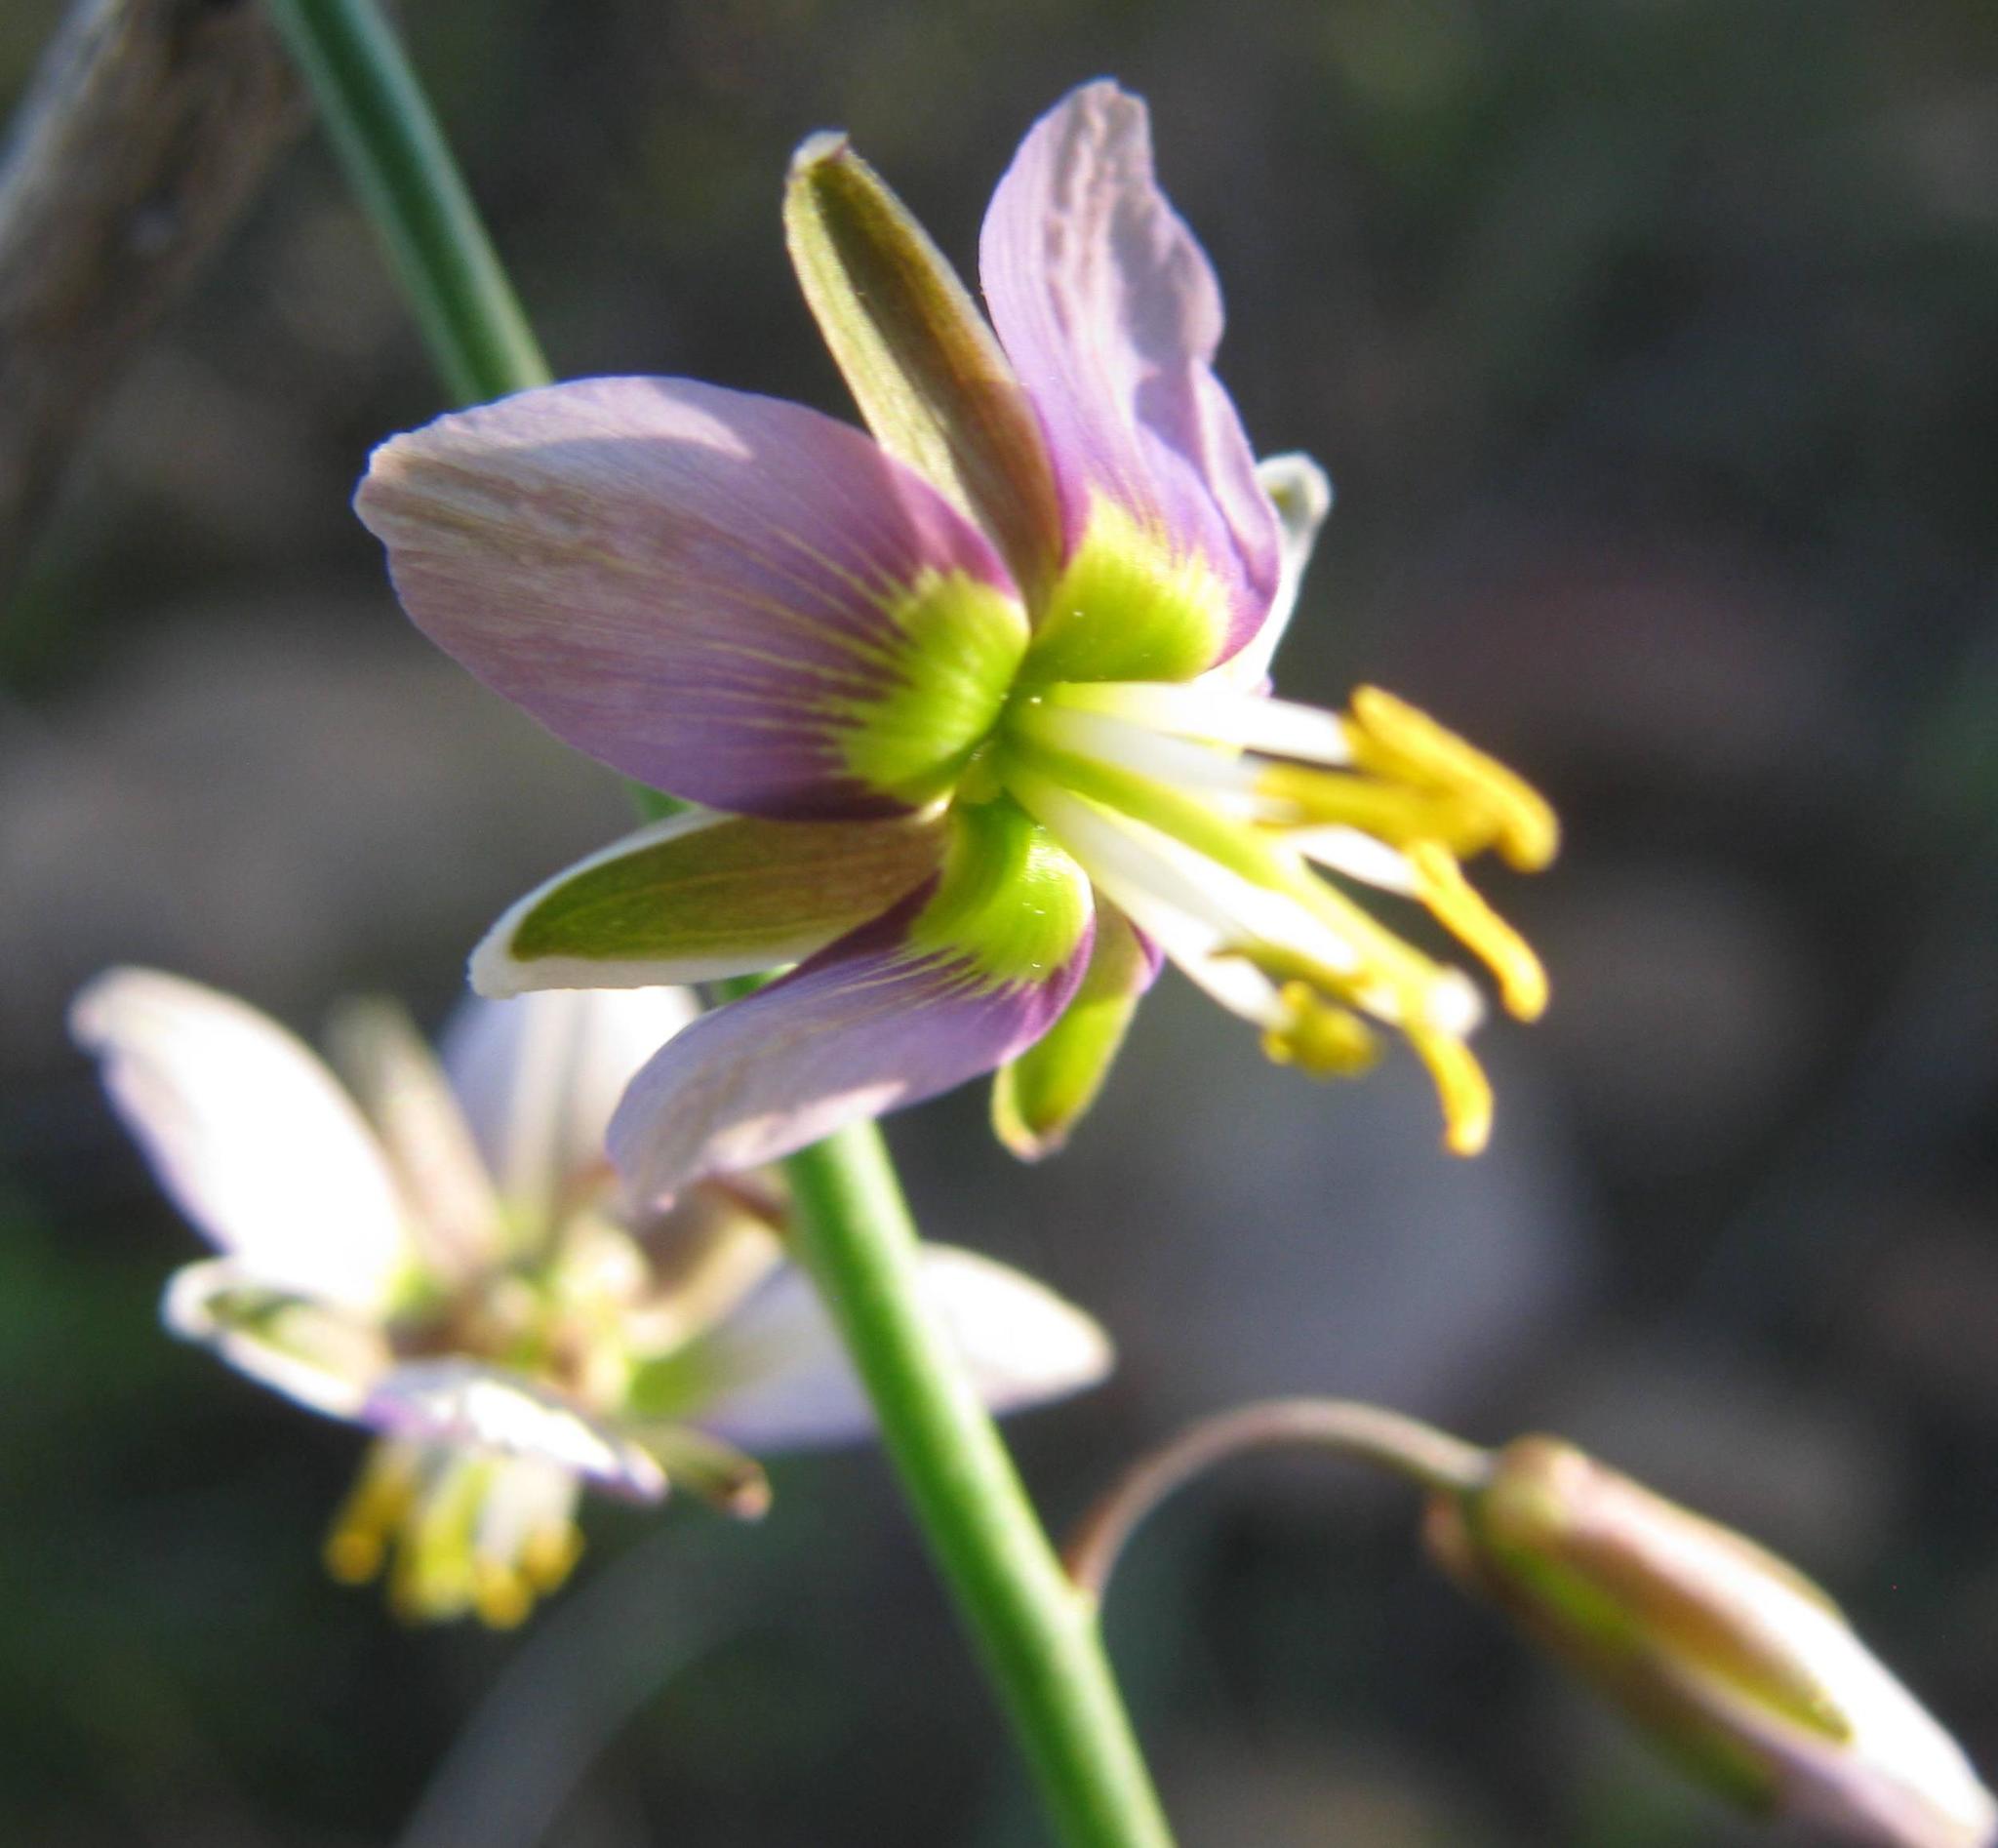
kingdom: Plantae
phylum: Tracheophyta
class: Magnoliopsida
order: Brassicales
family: Brassicaceae
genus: Heliophila
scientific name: Heliophila cornuta
